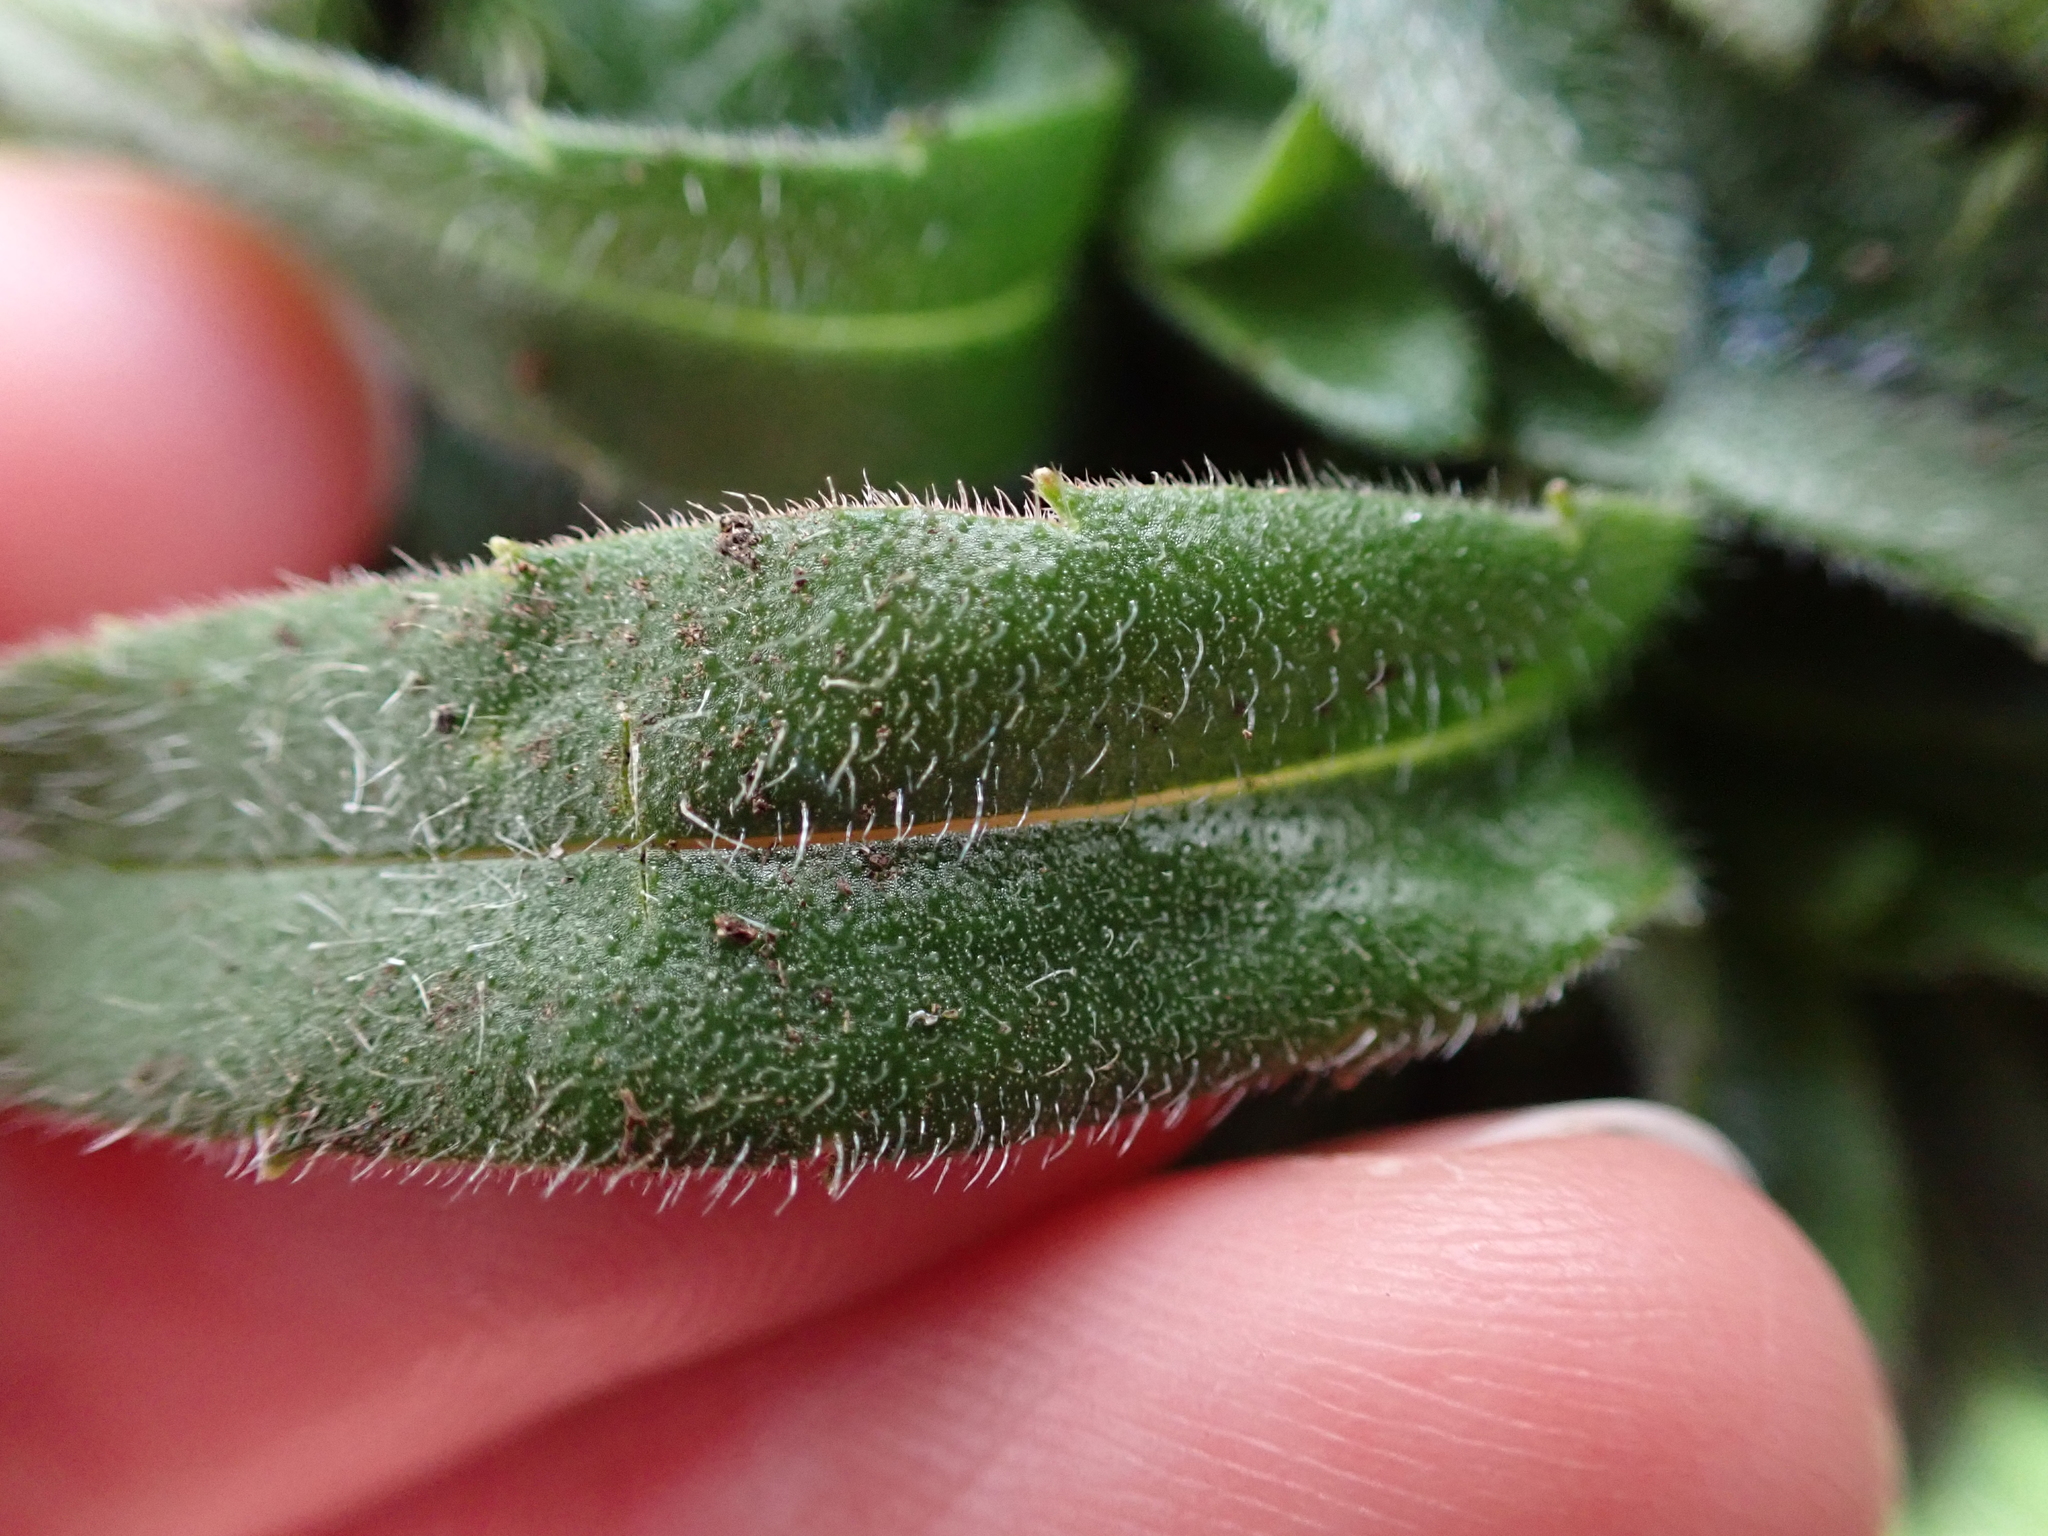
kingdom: Plantae
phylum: Tracheophyta
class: Magnoliopsida
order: Asterales
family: Asteraceae
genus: Anisocarpus
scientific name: Anisocarpus madioides
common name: Woodland madia
